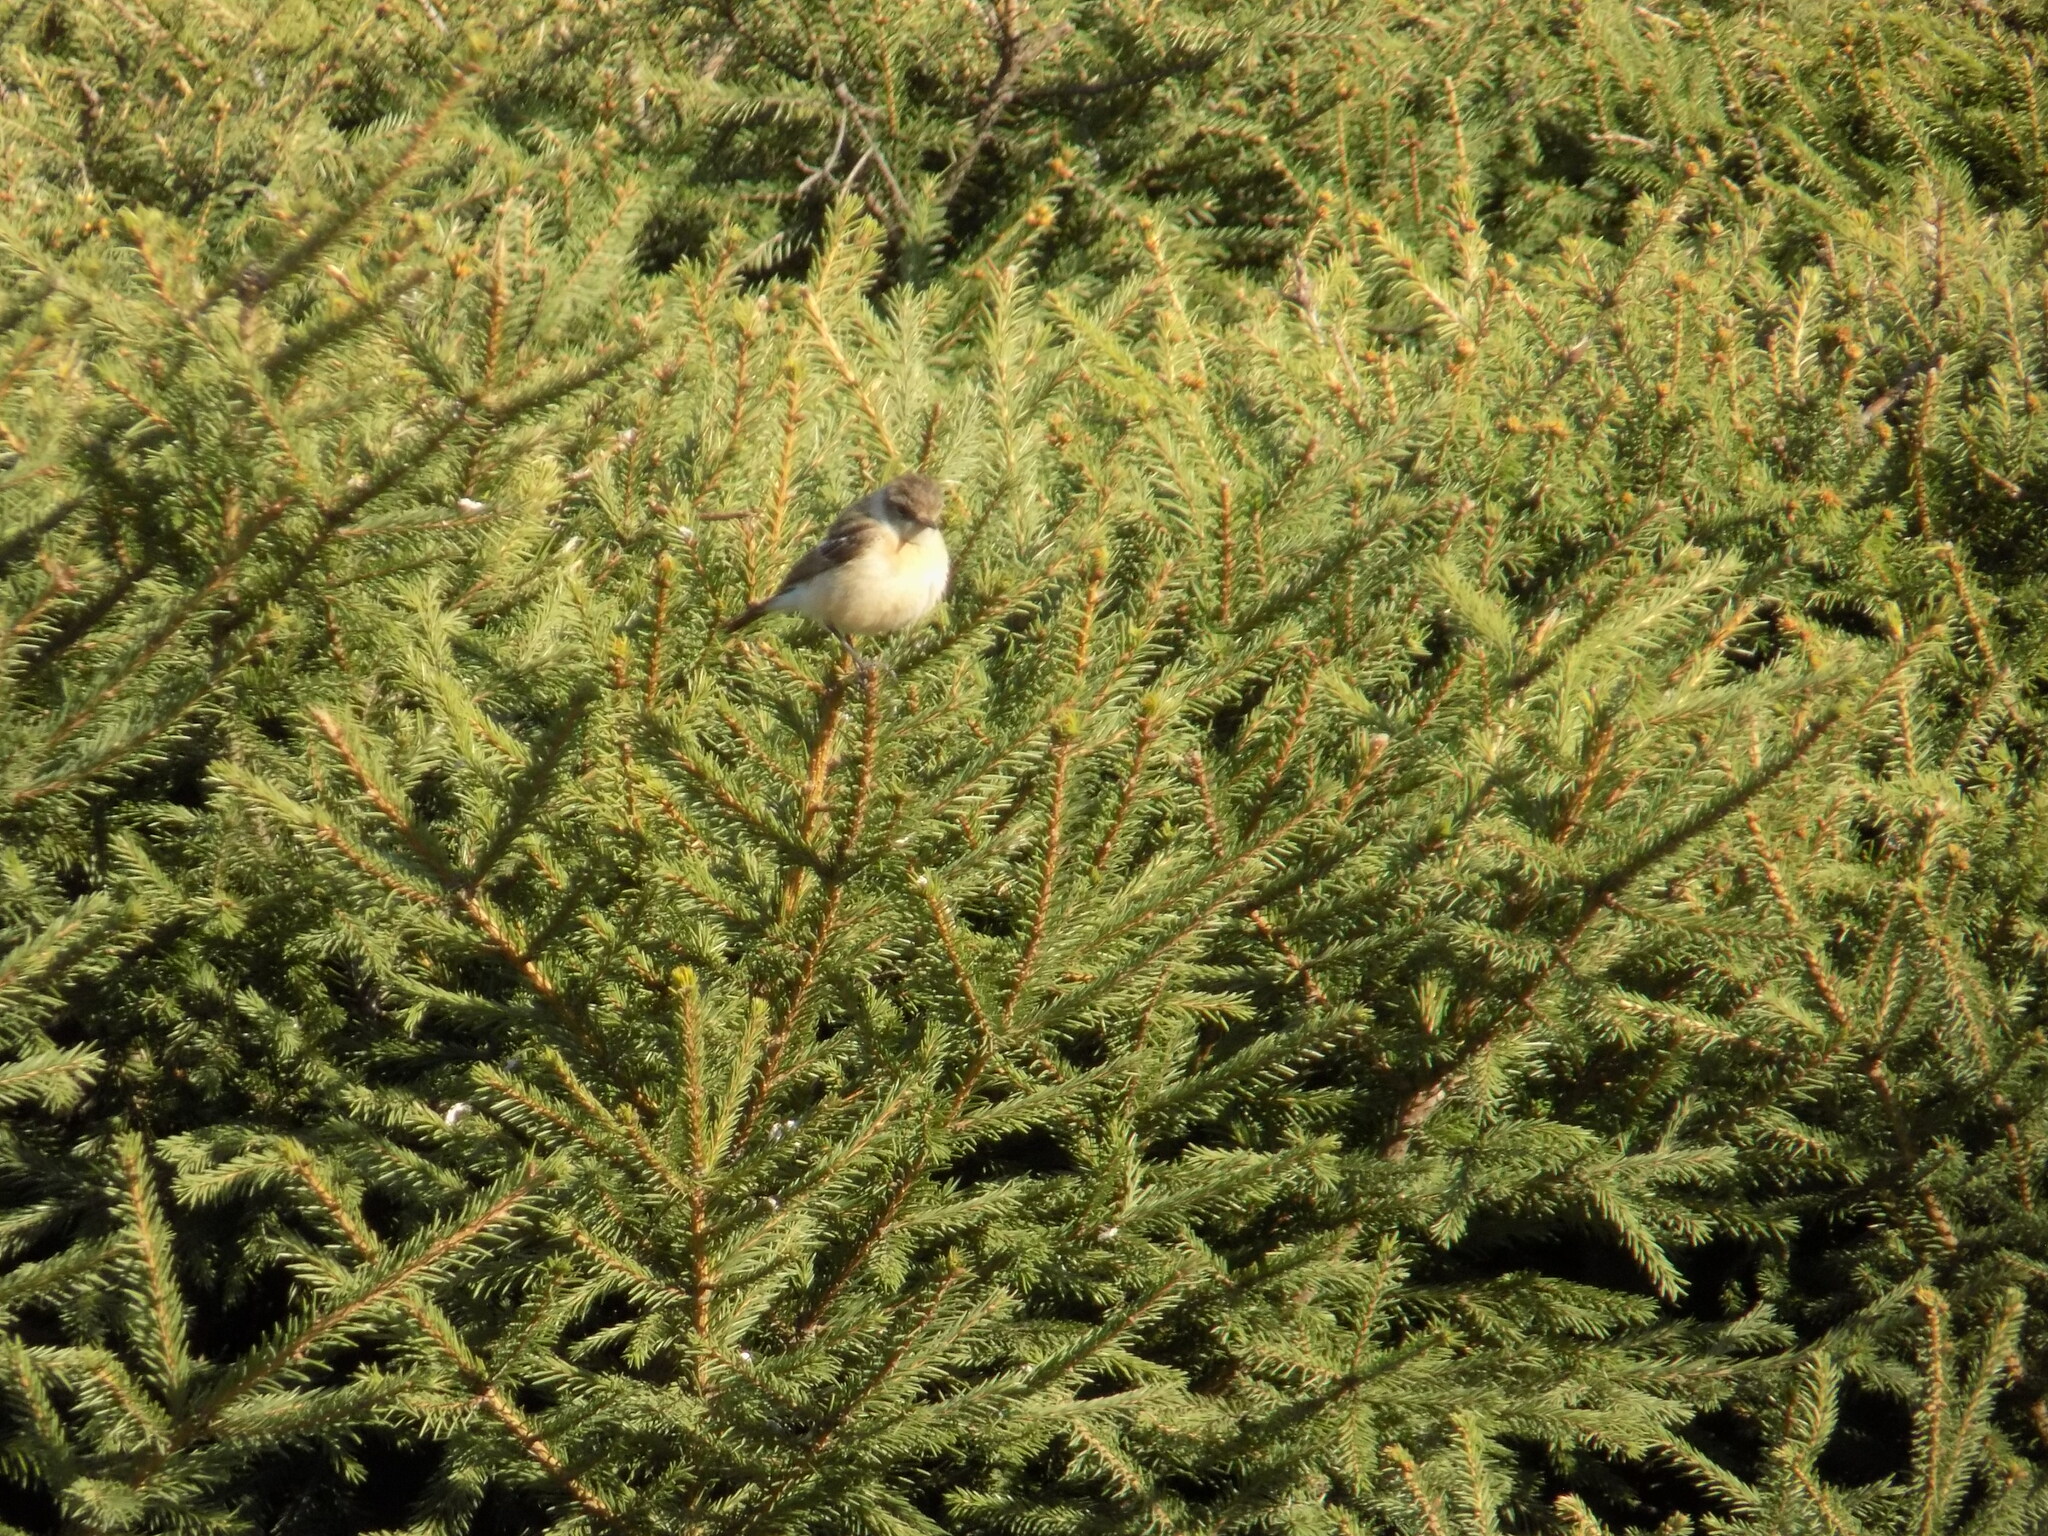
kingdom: Animalia
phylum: Chordata
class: Aves
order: Passeriformes
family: Muscicapidae
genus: Saxicola
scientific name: Saxicola maurus
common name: Siberian stonechat
